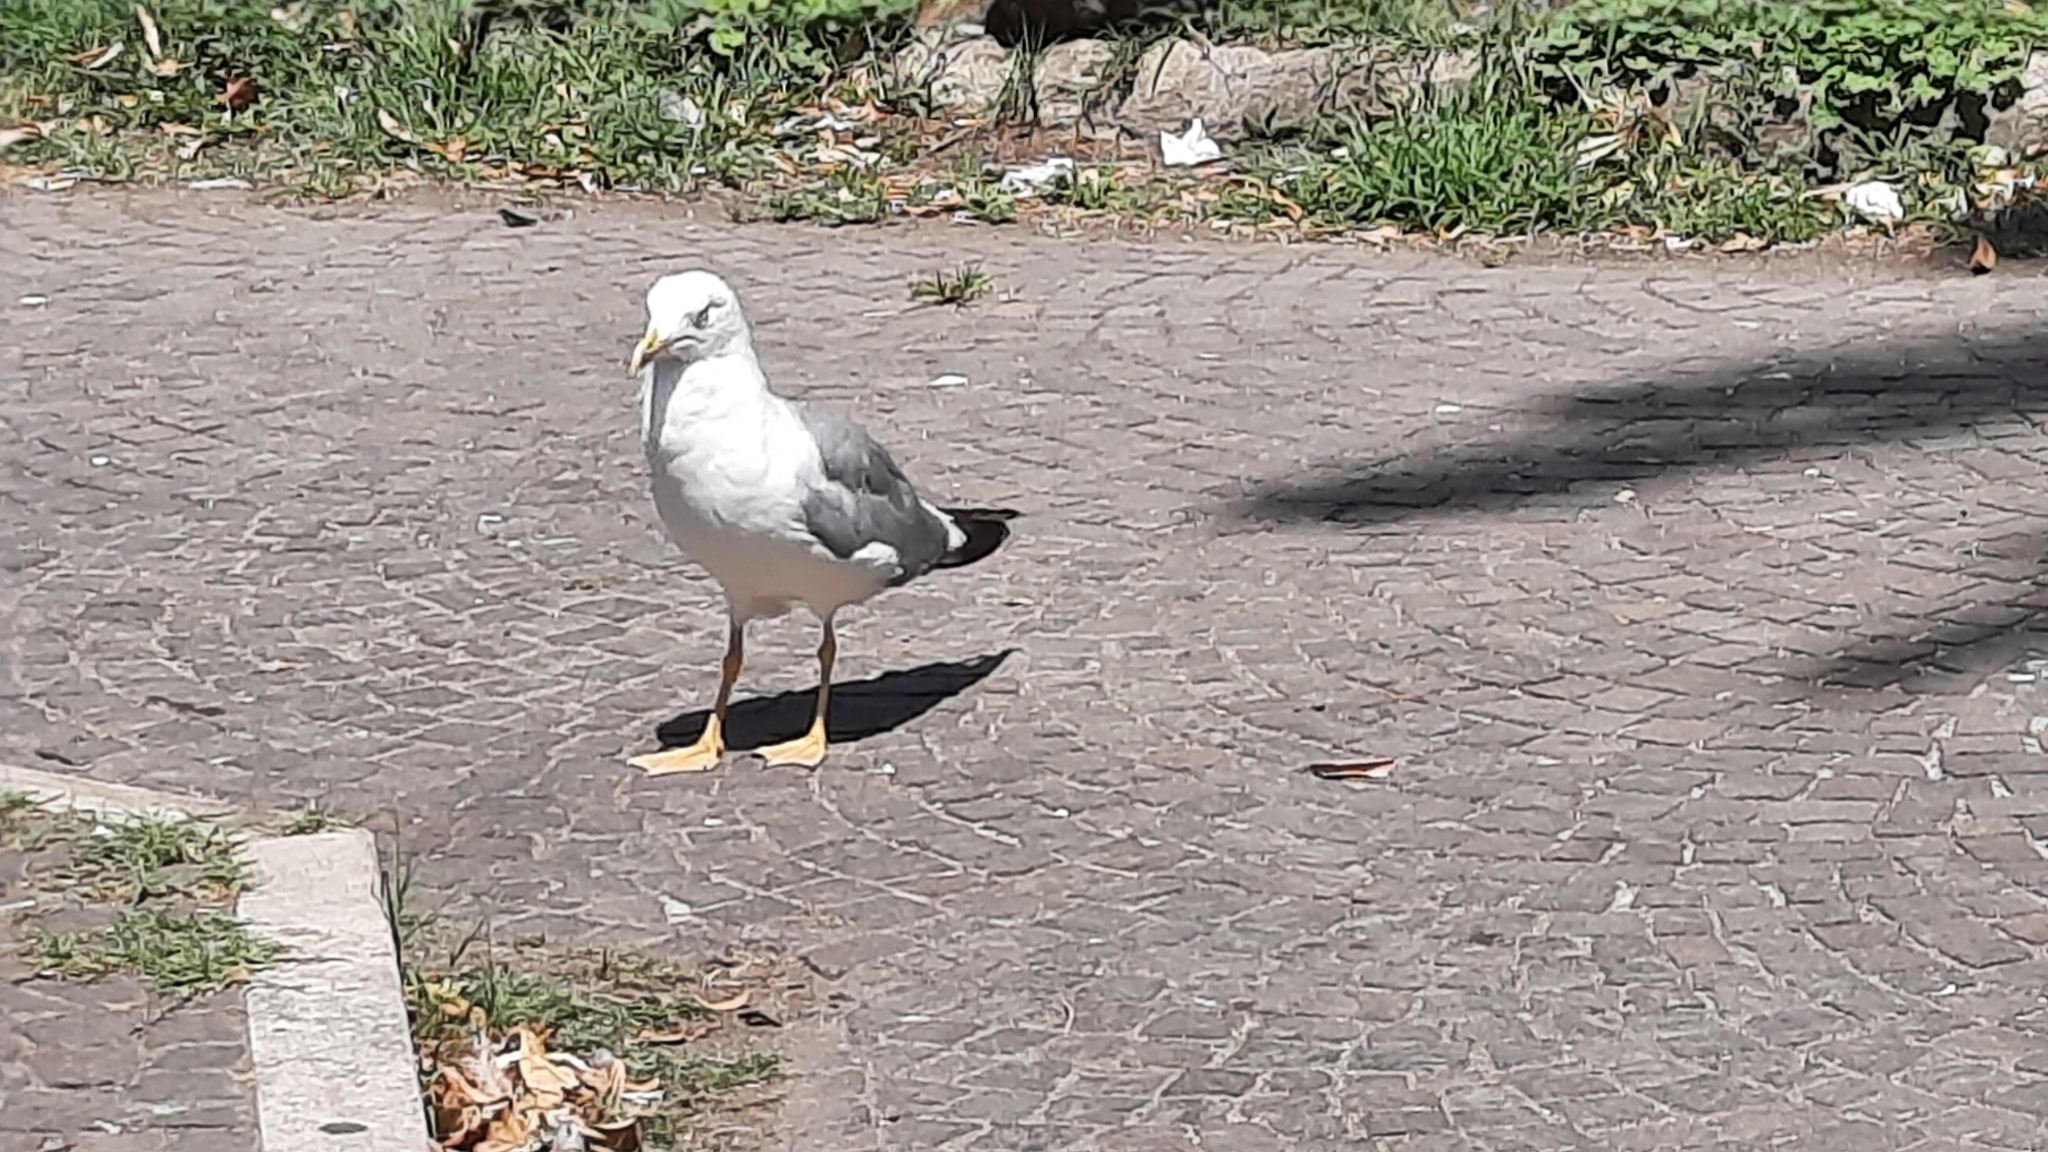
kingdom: Animalia
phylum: Chordata
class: Aves
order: Charadriiformes
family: Laridae
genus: Larus
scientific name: Larus michahellis
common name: Yellow-legged gull
